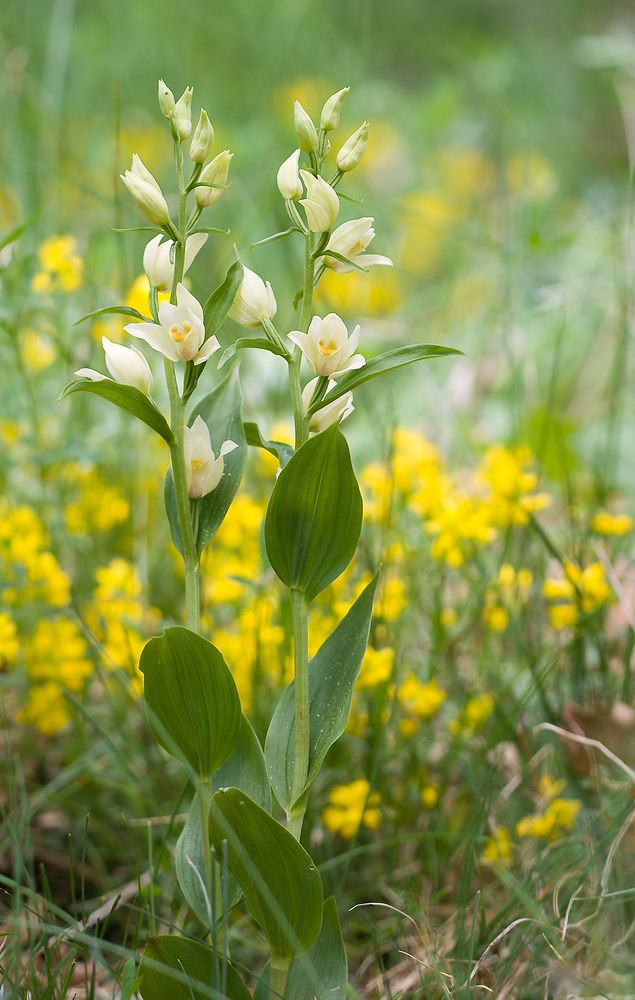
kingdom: Plantae
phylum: Tracheophyta
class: Liliopsida
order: Asparagales
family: Orchidaceae
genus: Cephalanthera
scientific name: Cephalanthera damasonium
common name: White helleborine
